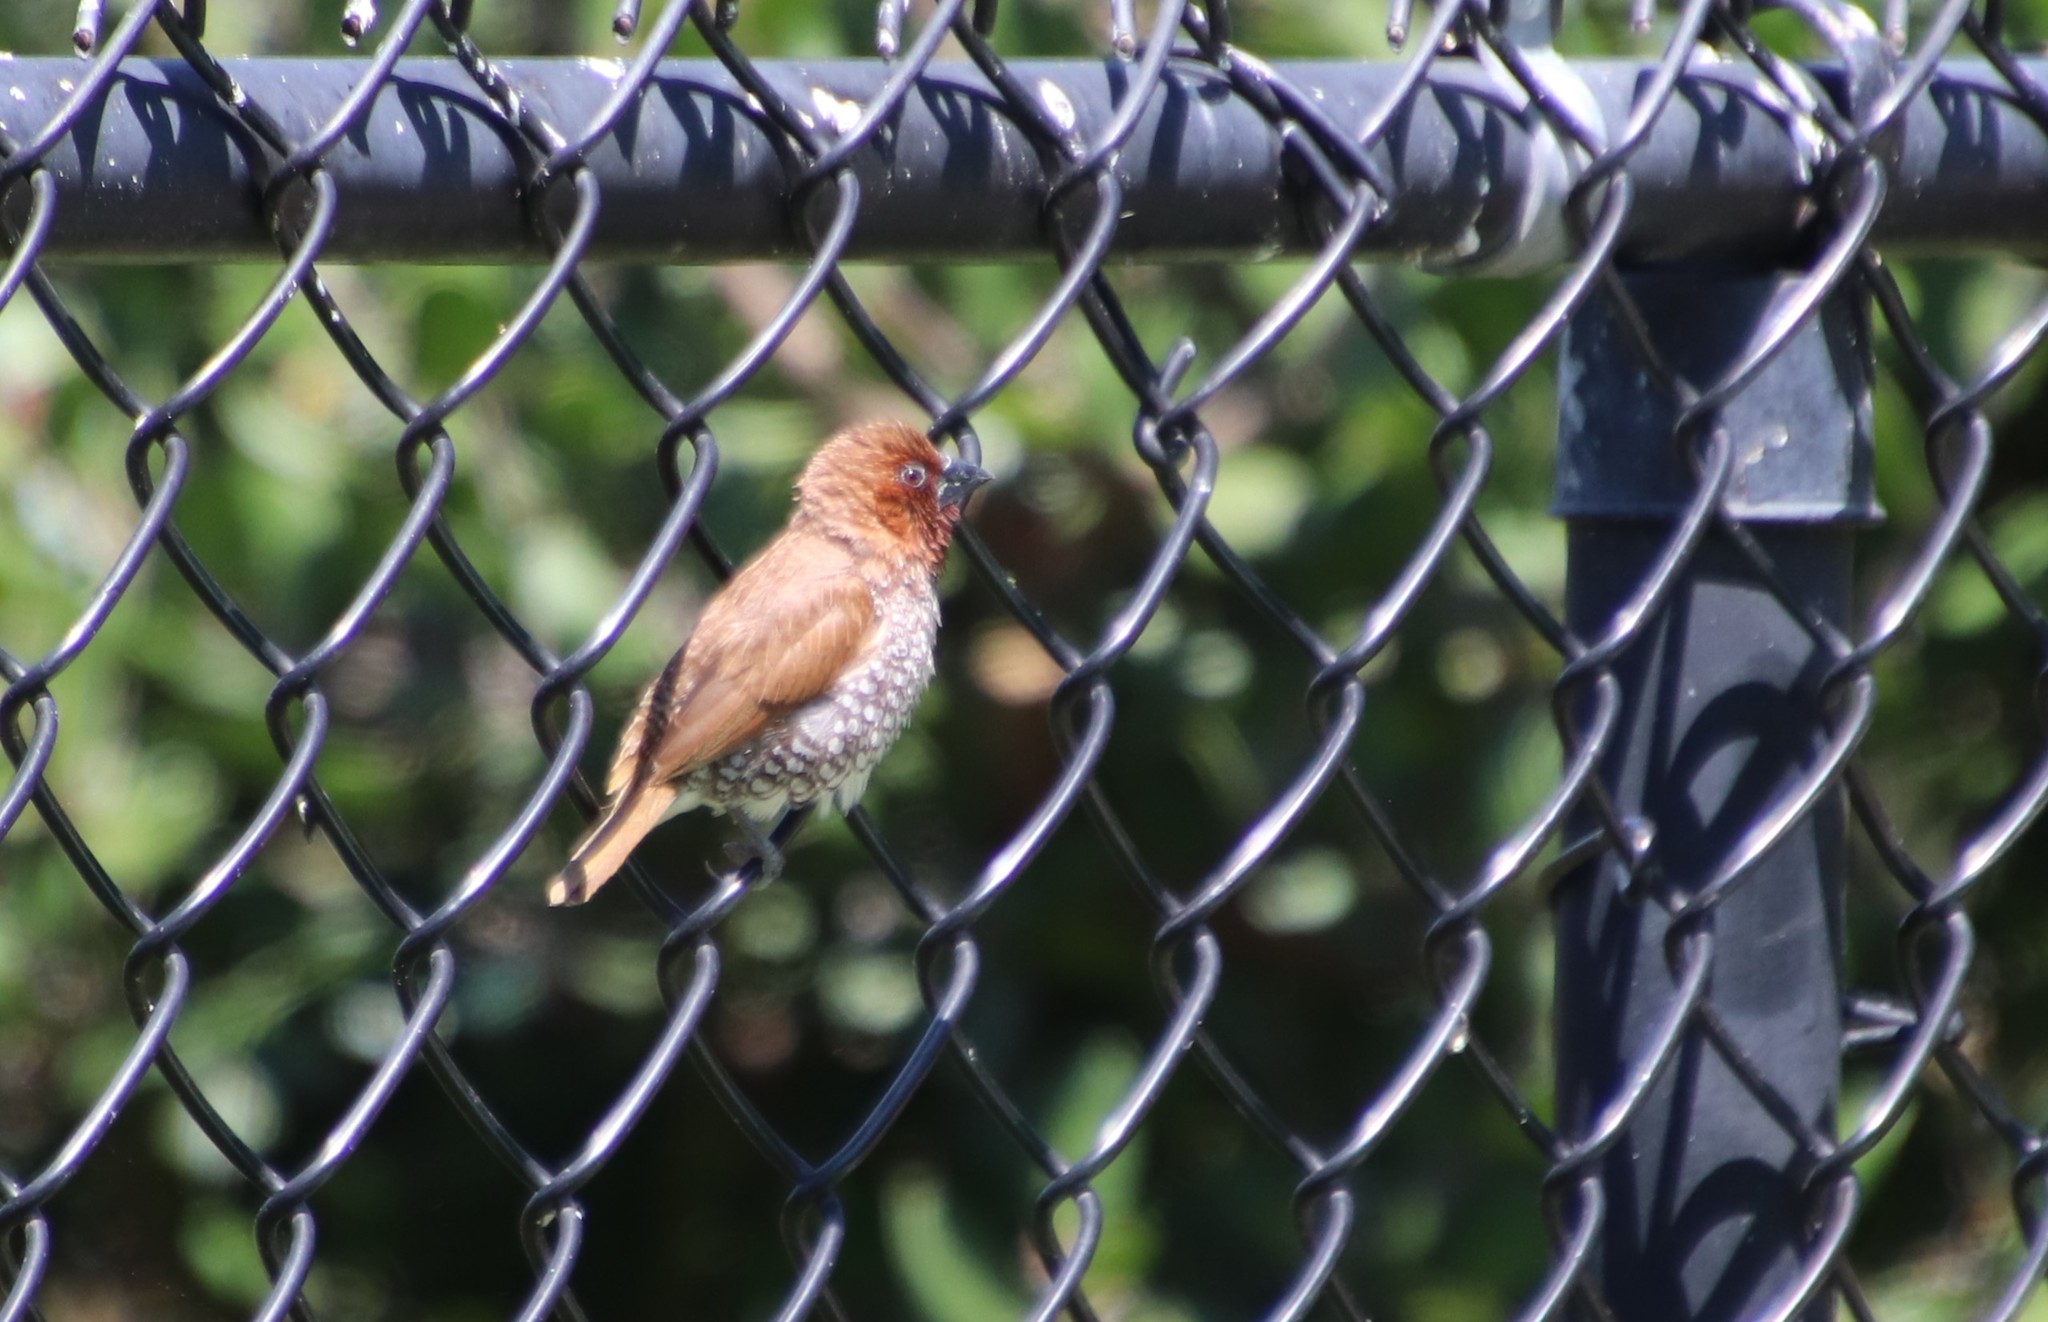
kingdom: Animalia
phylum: Chordata
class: Aves
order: Passeriformes
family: Estrildidae
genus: Lonchura
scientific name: Lonchura punctulata
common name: Scaly-breasted munia
